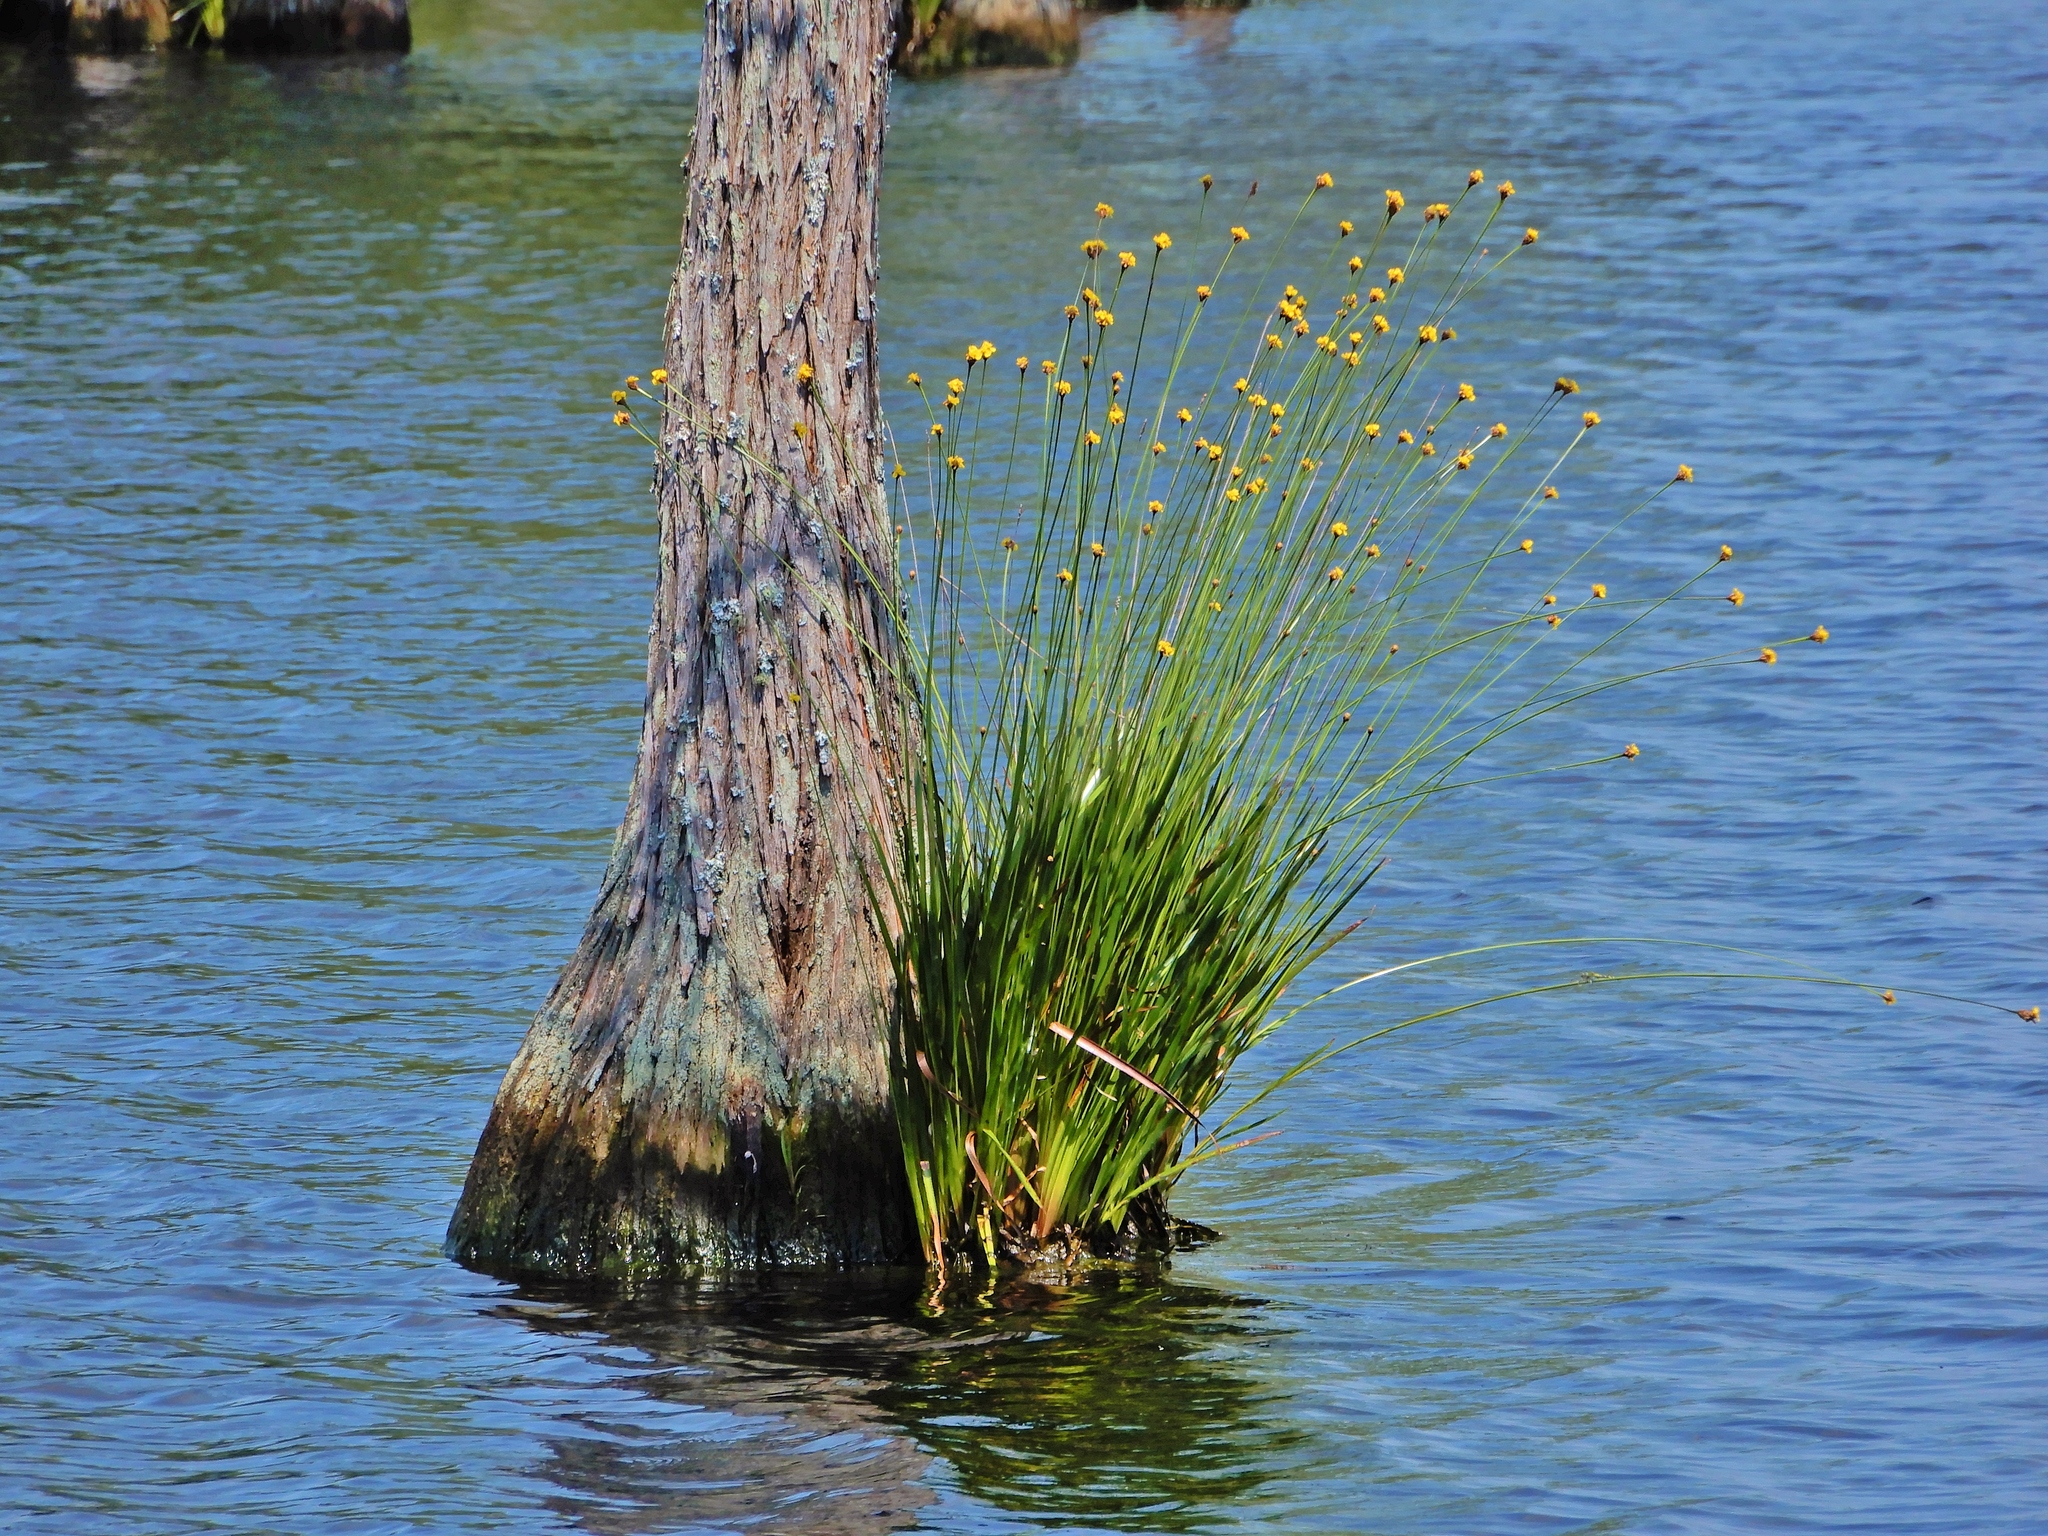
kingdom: Plantae
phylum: Tracheophyta
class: Liliopsida
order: Poales
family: Xyridaceae
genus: Xyris
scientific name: Xyris fimbriata
